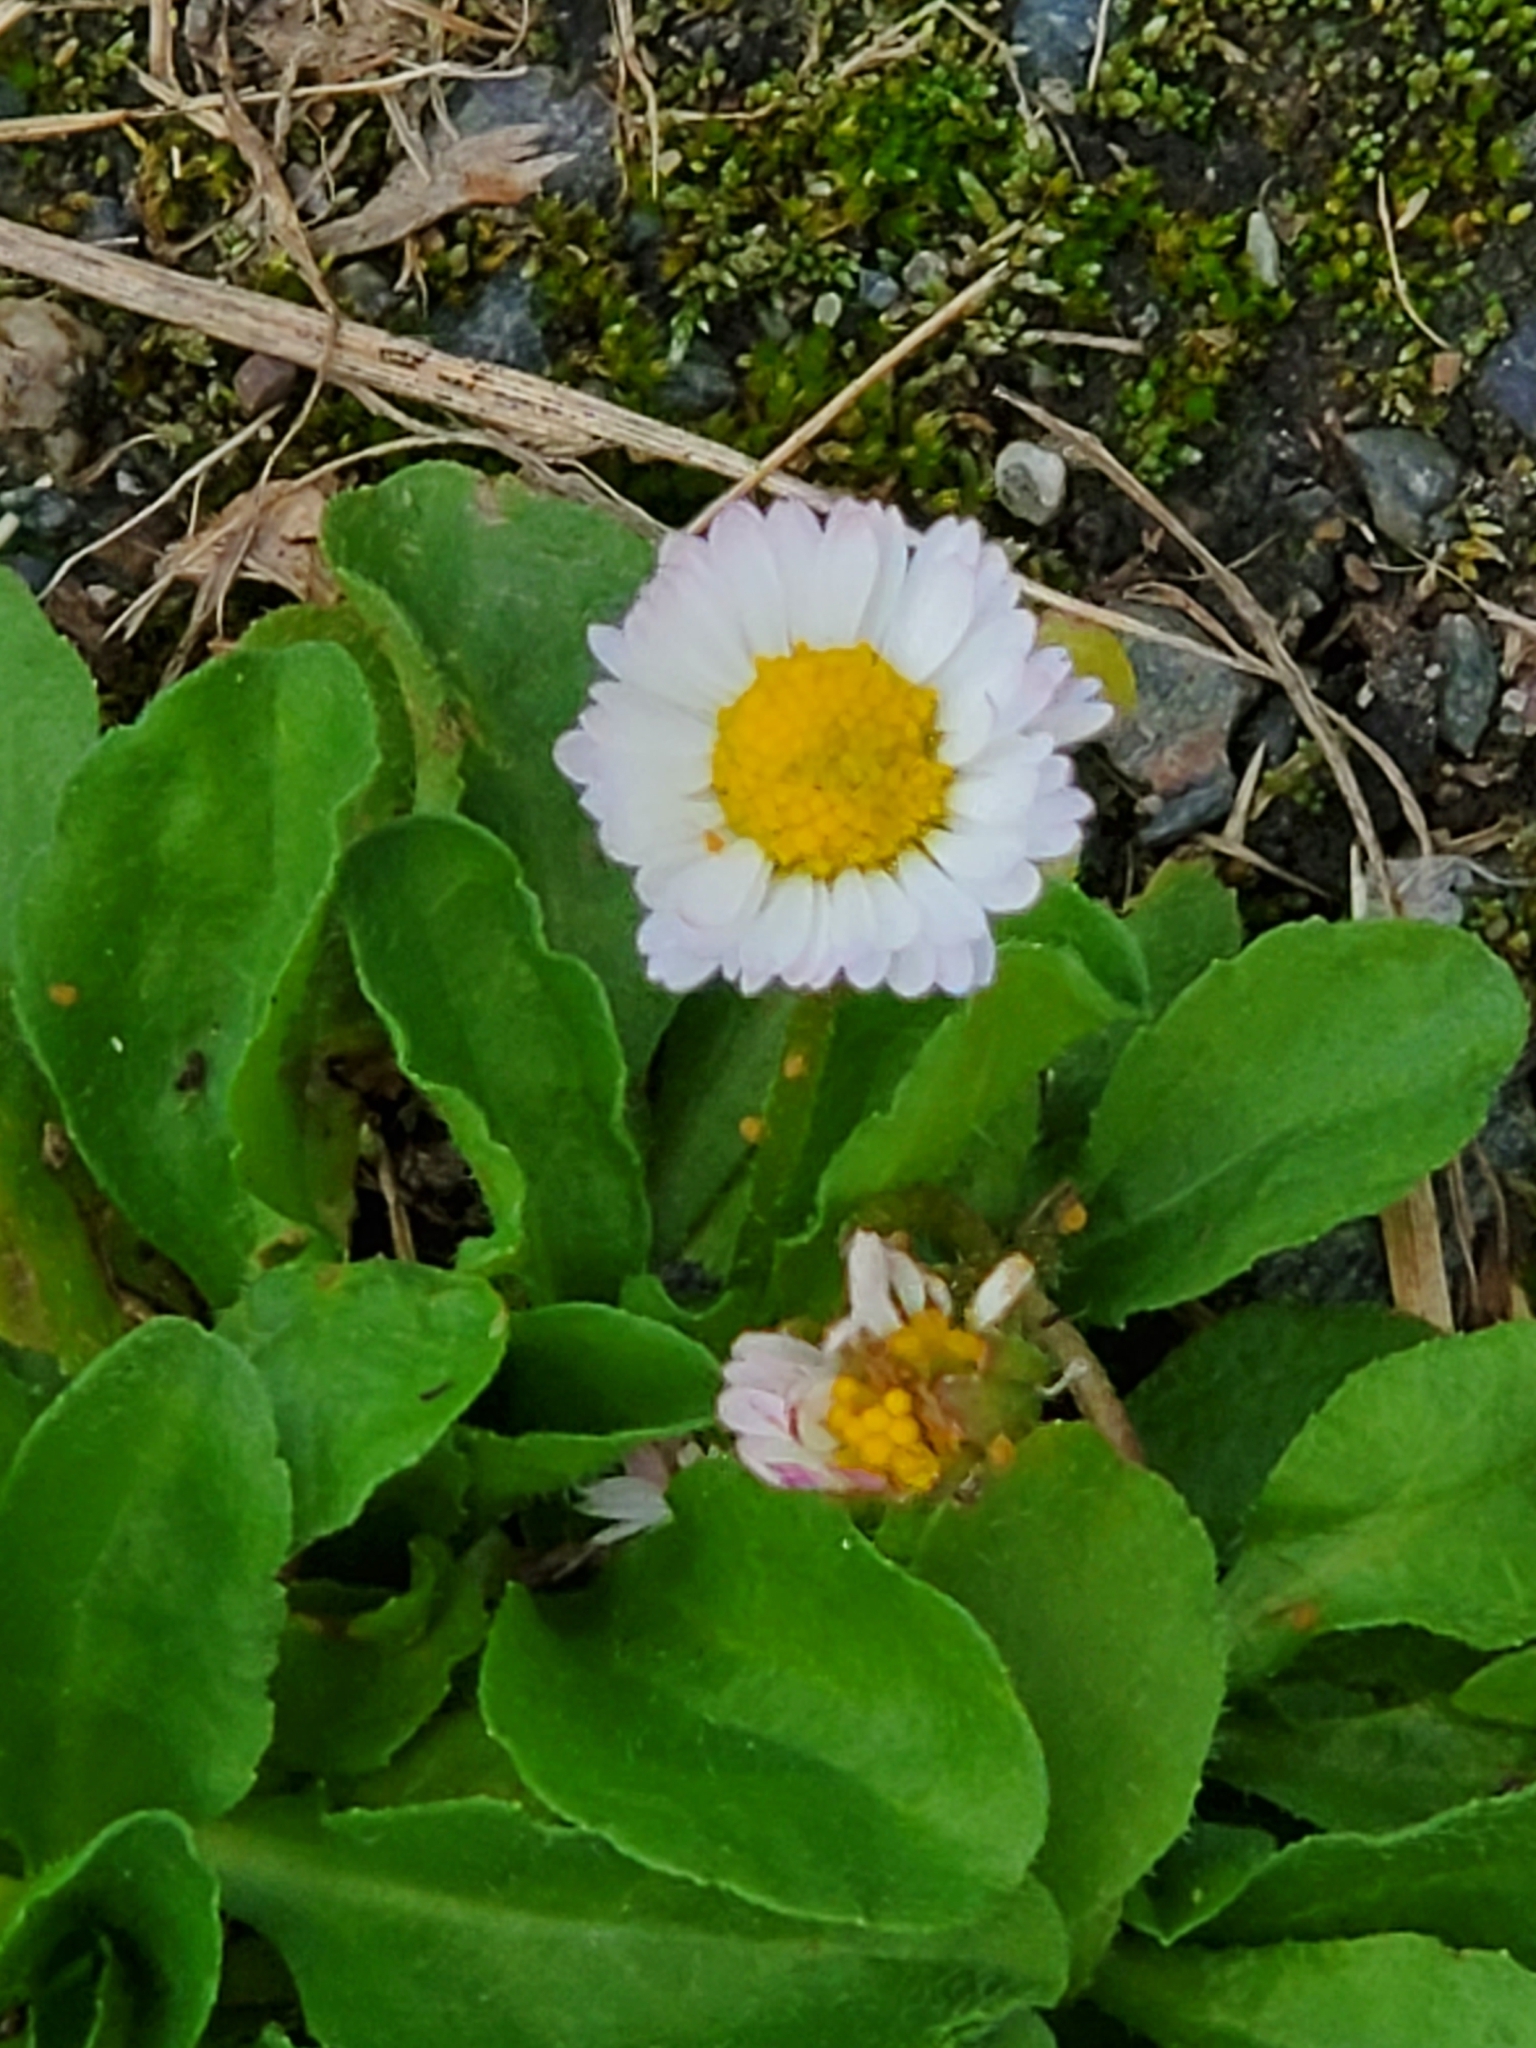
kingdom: Plantae
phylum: Tracheophyta
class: Magnoliopsida
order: Asterales
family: Asteraceae
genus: Bellis
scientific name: Bellis perennis
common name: Lawndaisy
